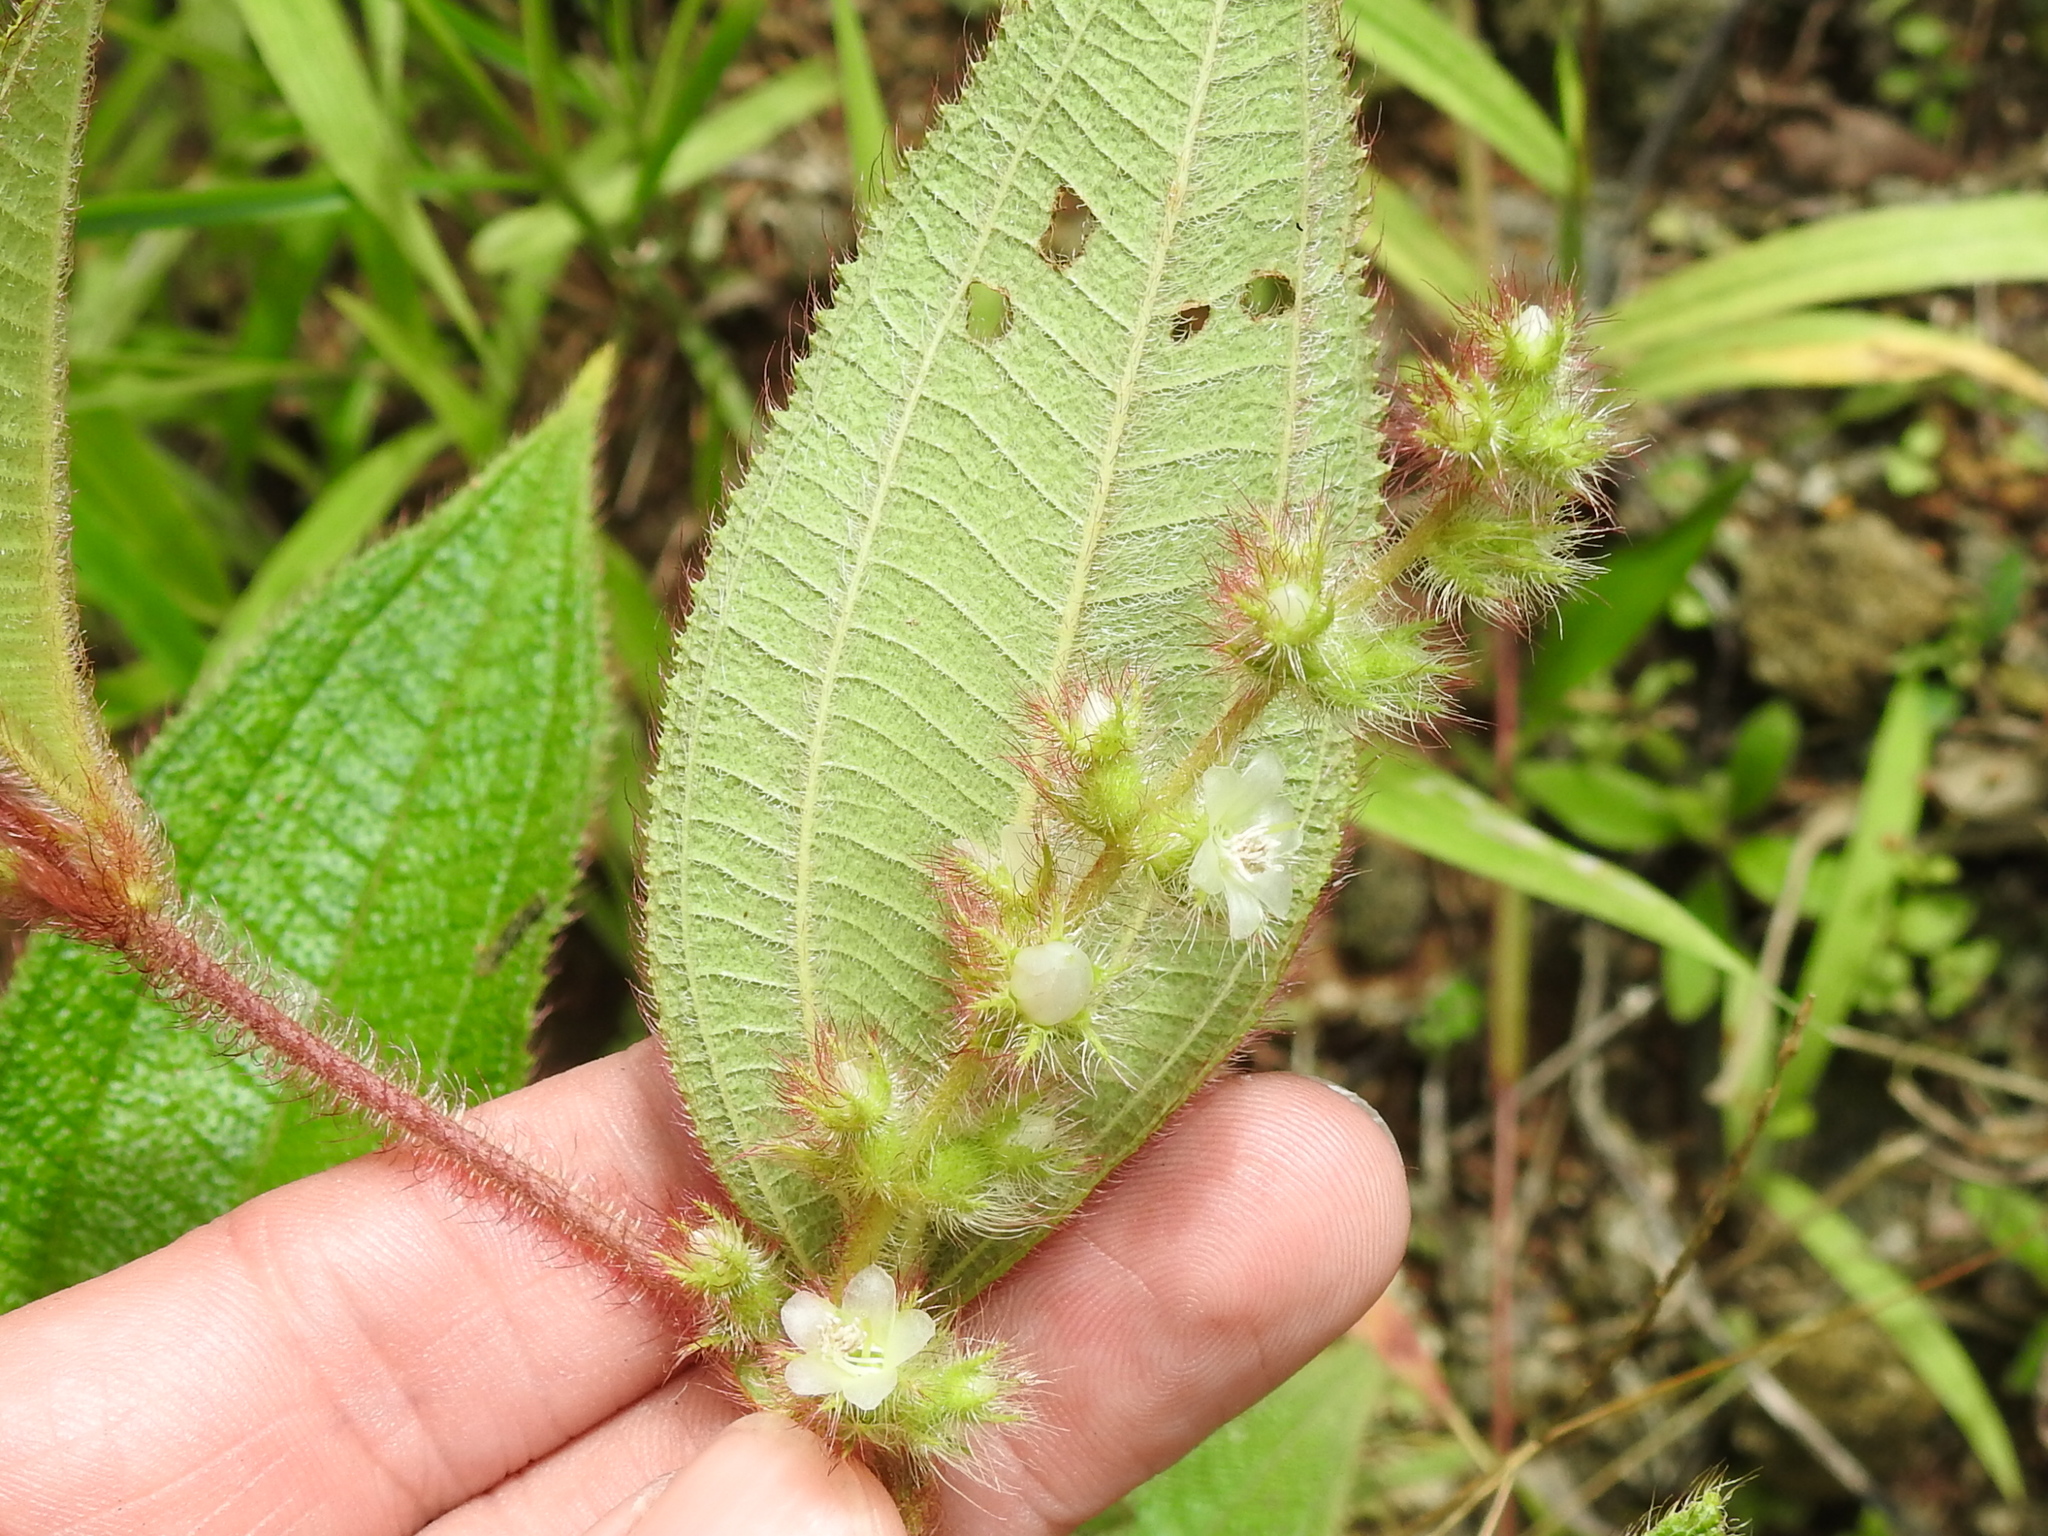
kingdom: Plantae
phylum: Tracheophyta
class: Magnoliopsida
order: Myrtales
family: Melastomataceae
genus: Miconia
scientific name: Miconia dependens
